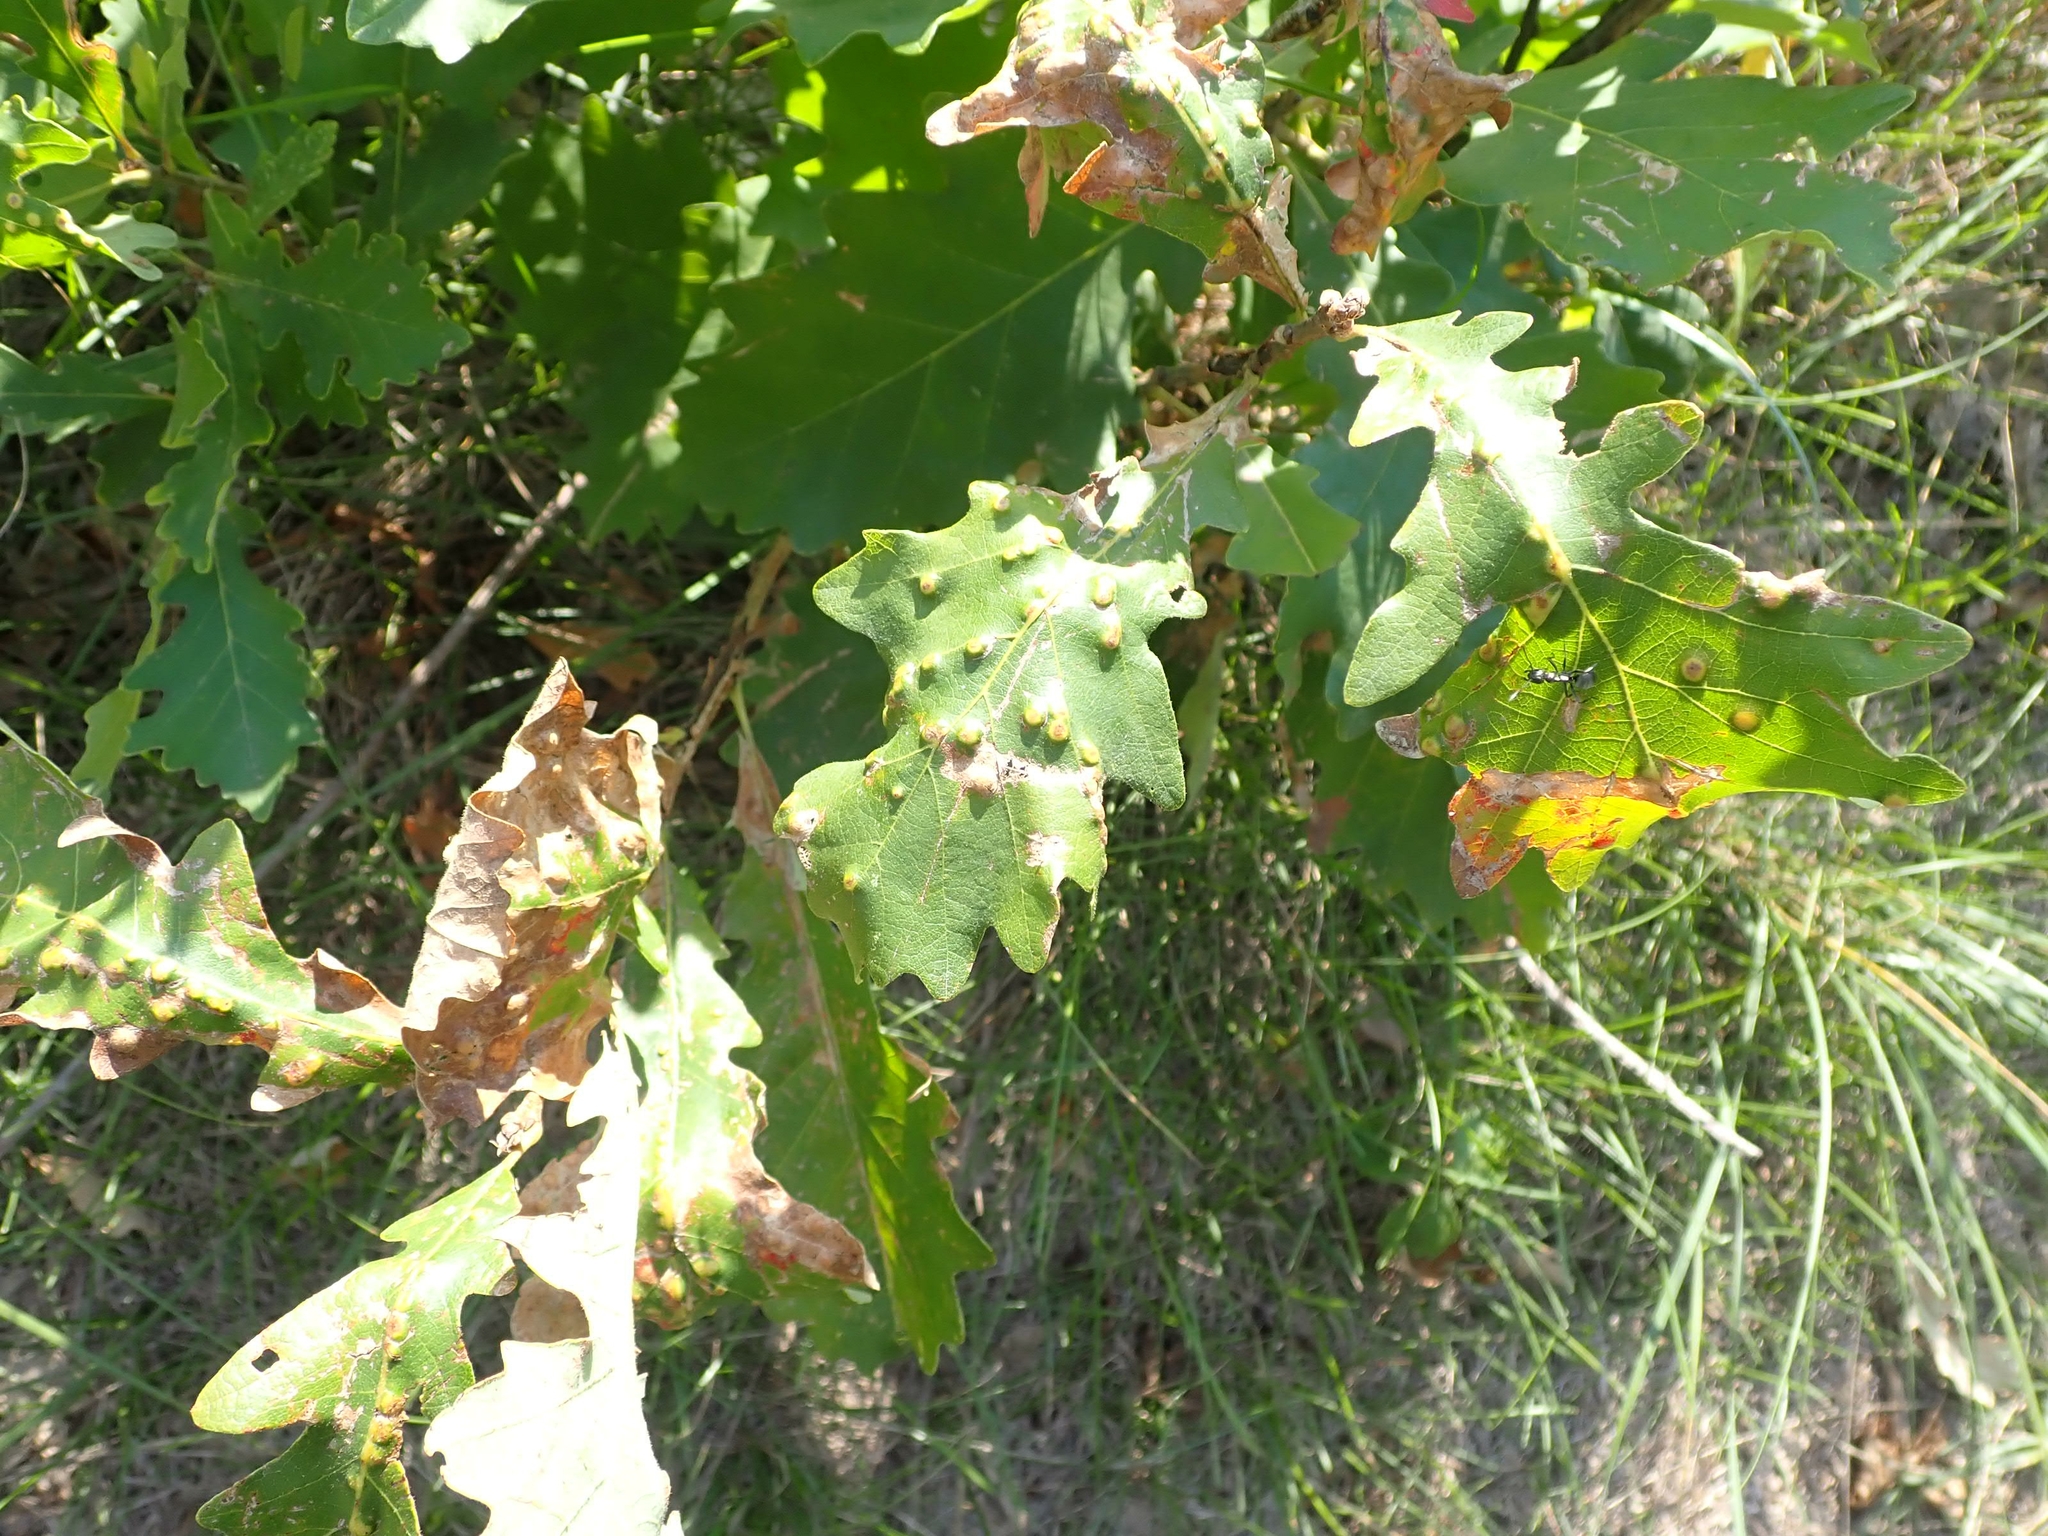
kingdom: Plantae
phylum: Tracheophyta
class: Magnoliopsida
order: Fagales
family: Fagaceae
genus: Quercus
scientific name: Quercus macrocarpa
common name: Bur oak
